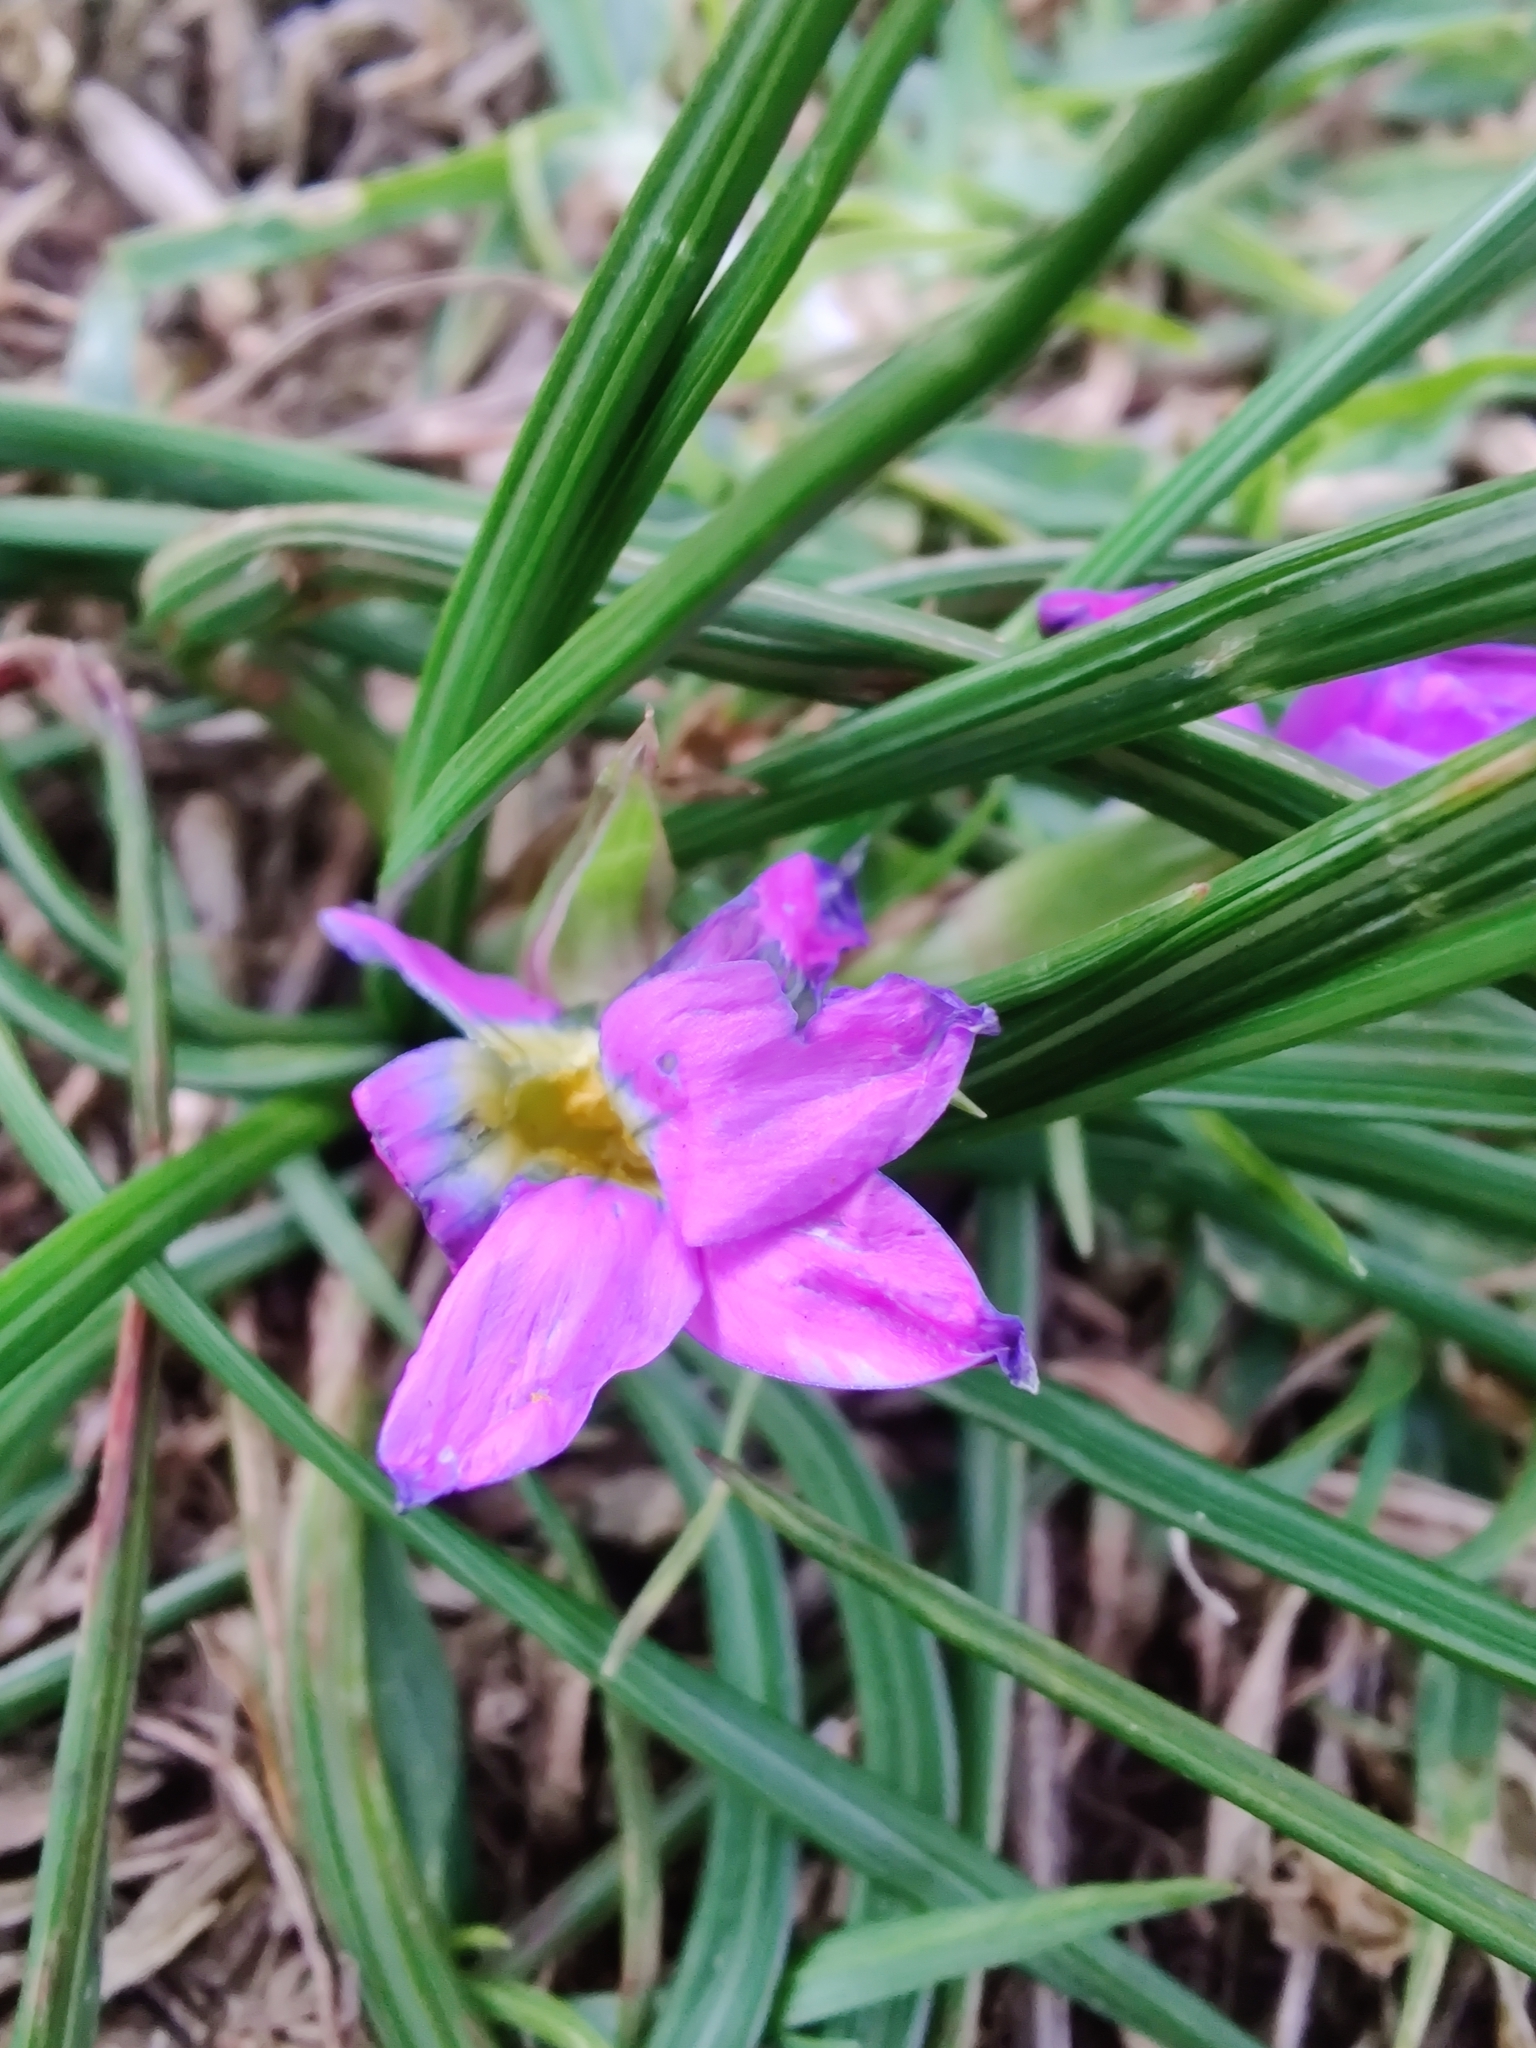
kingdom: Plantae
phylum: Tracheophyta
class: Liliopsida
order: Asparagales
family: Iridaceae
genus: Romulea
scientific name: Romulea rosea
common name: Oniongrass
